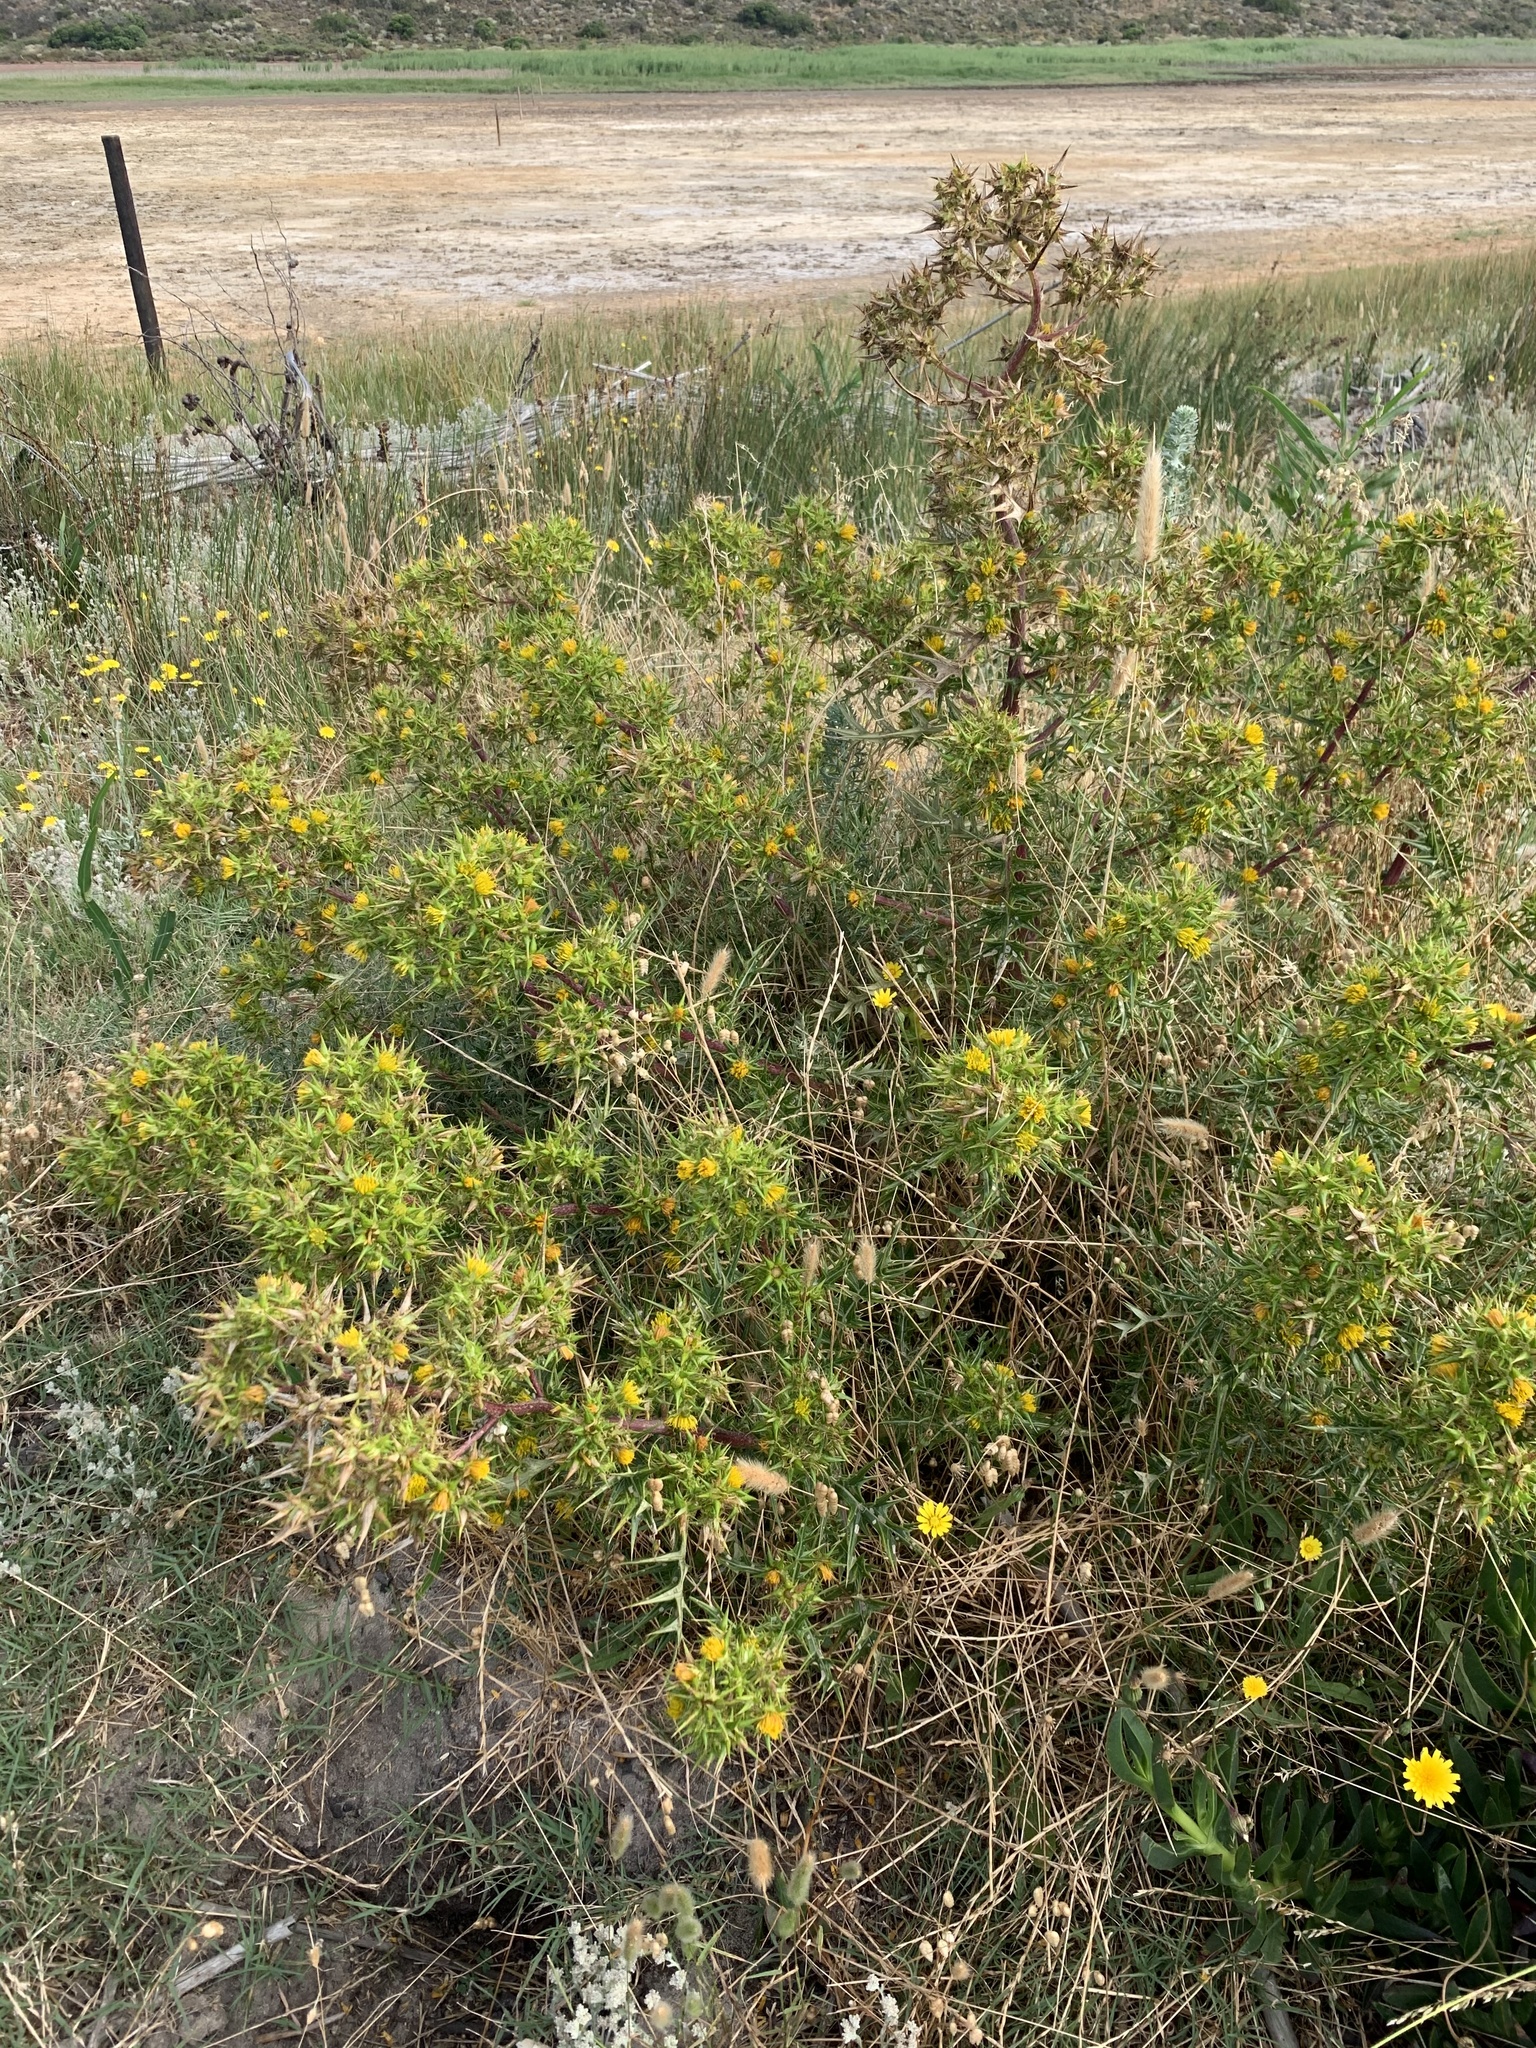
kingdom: Plantae
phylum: Tracheophyta
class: Magnoliopsida
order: Asterales
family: Asteraceae
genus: Berkheya
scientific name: Berkheya rigida
